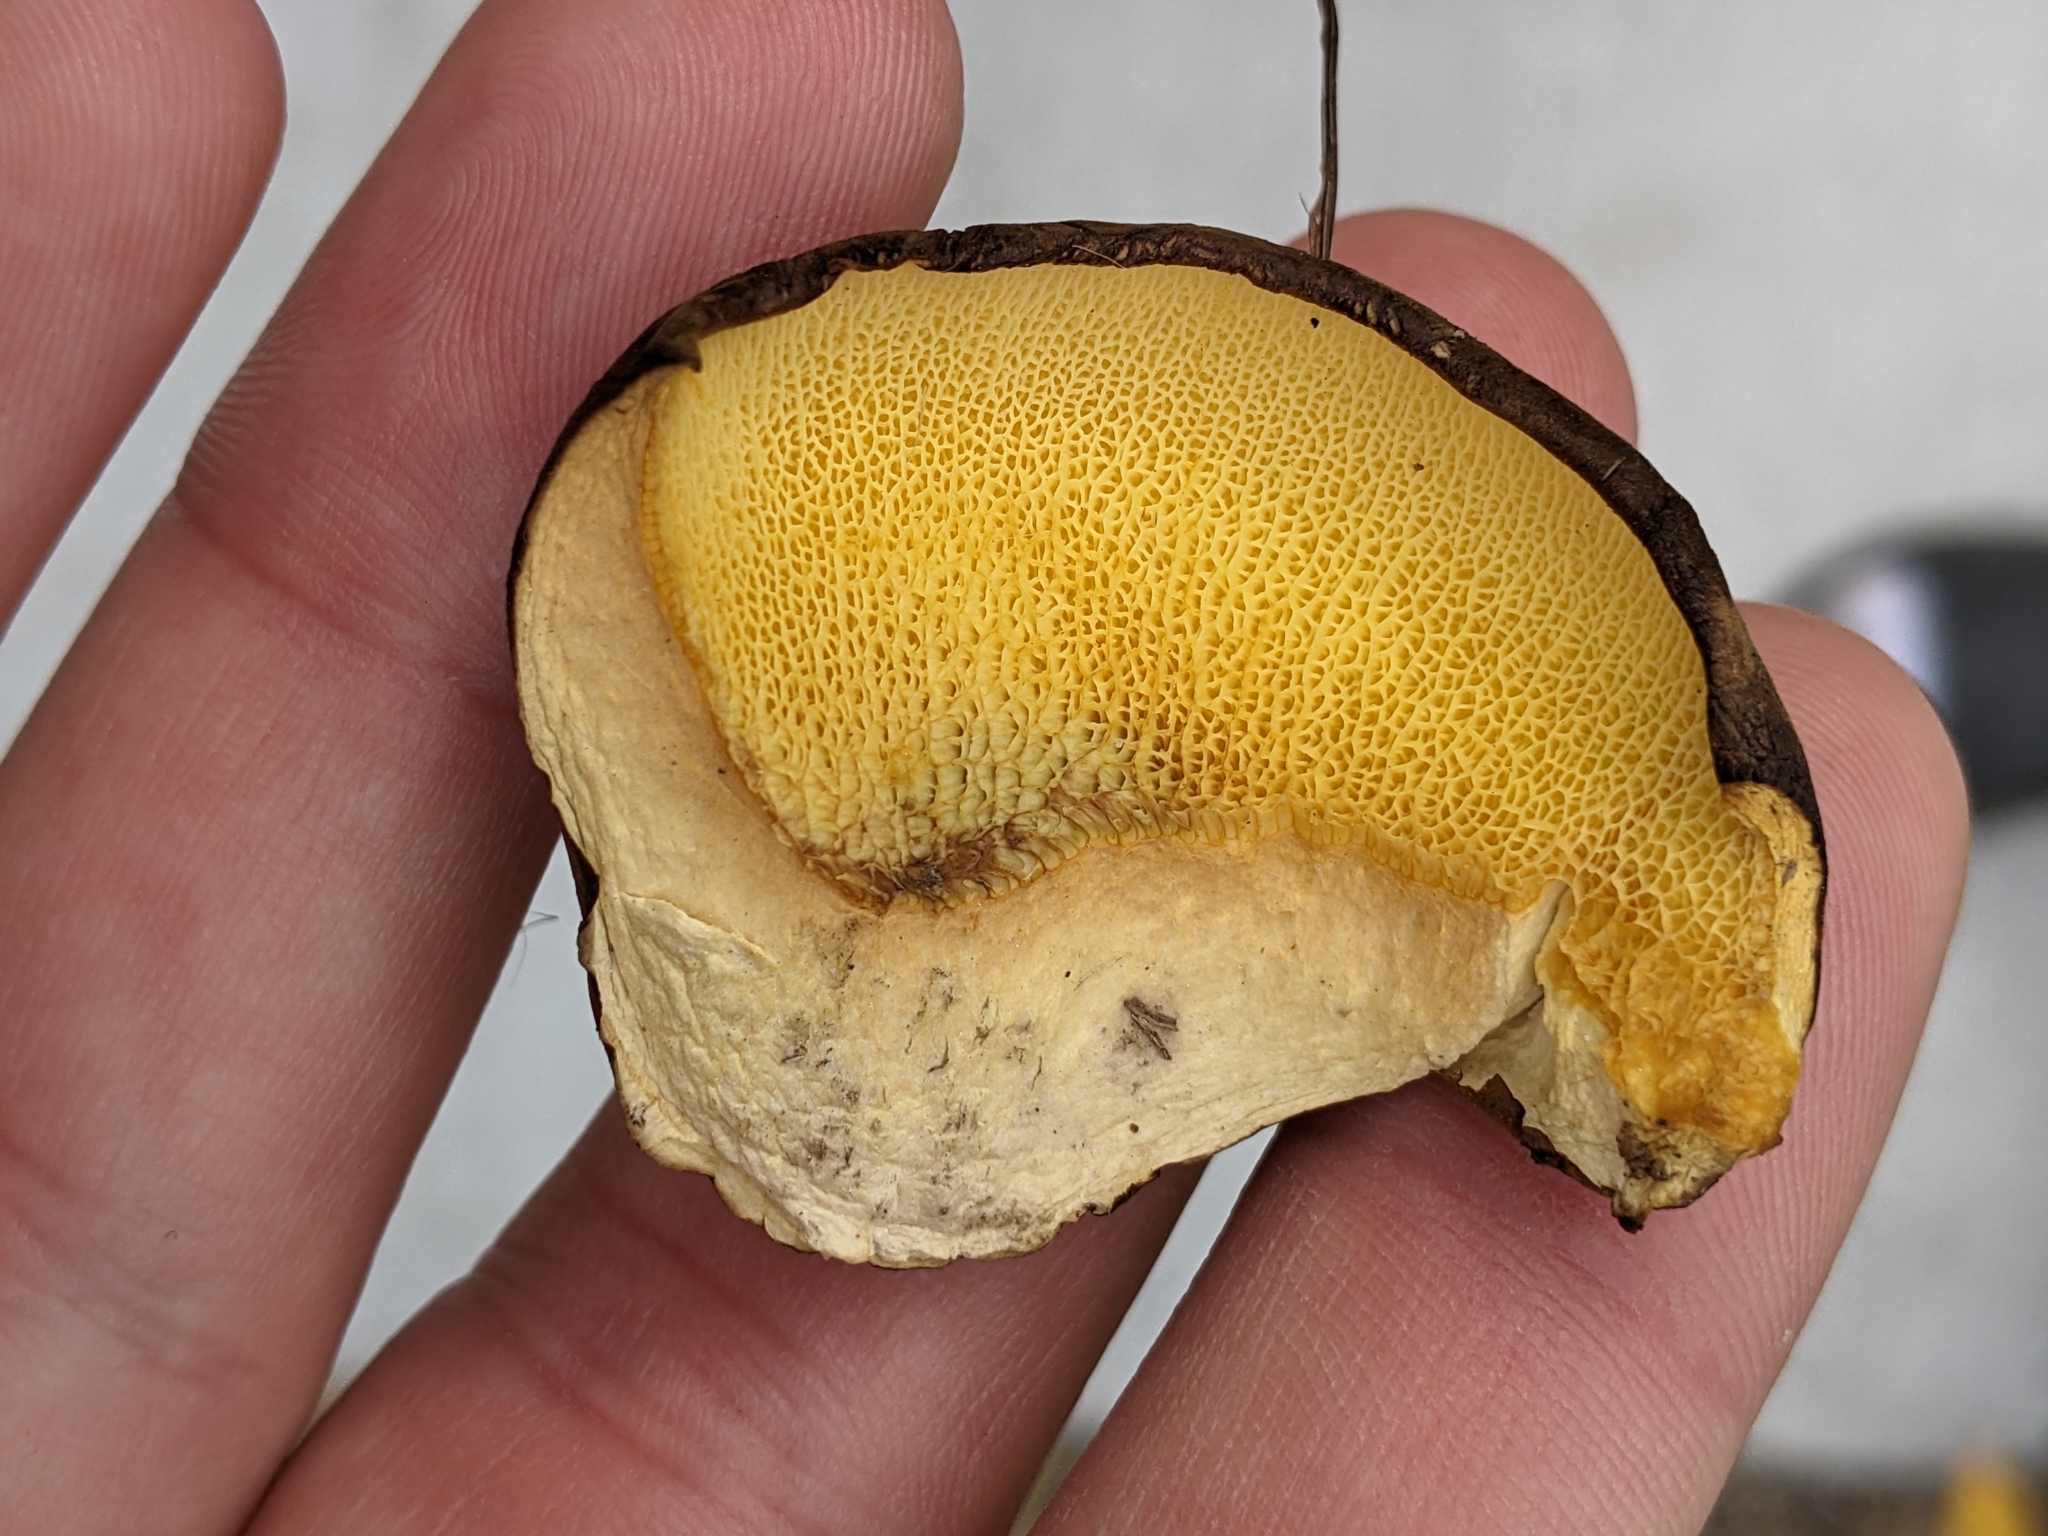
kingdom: Fungi
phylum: Basidiomycota
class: Agaricomycetes
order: Boletales
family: Boletinellaceae
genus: Boletinellus
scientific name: Boletinellus merulioides
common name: Ash tree bolete
